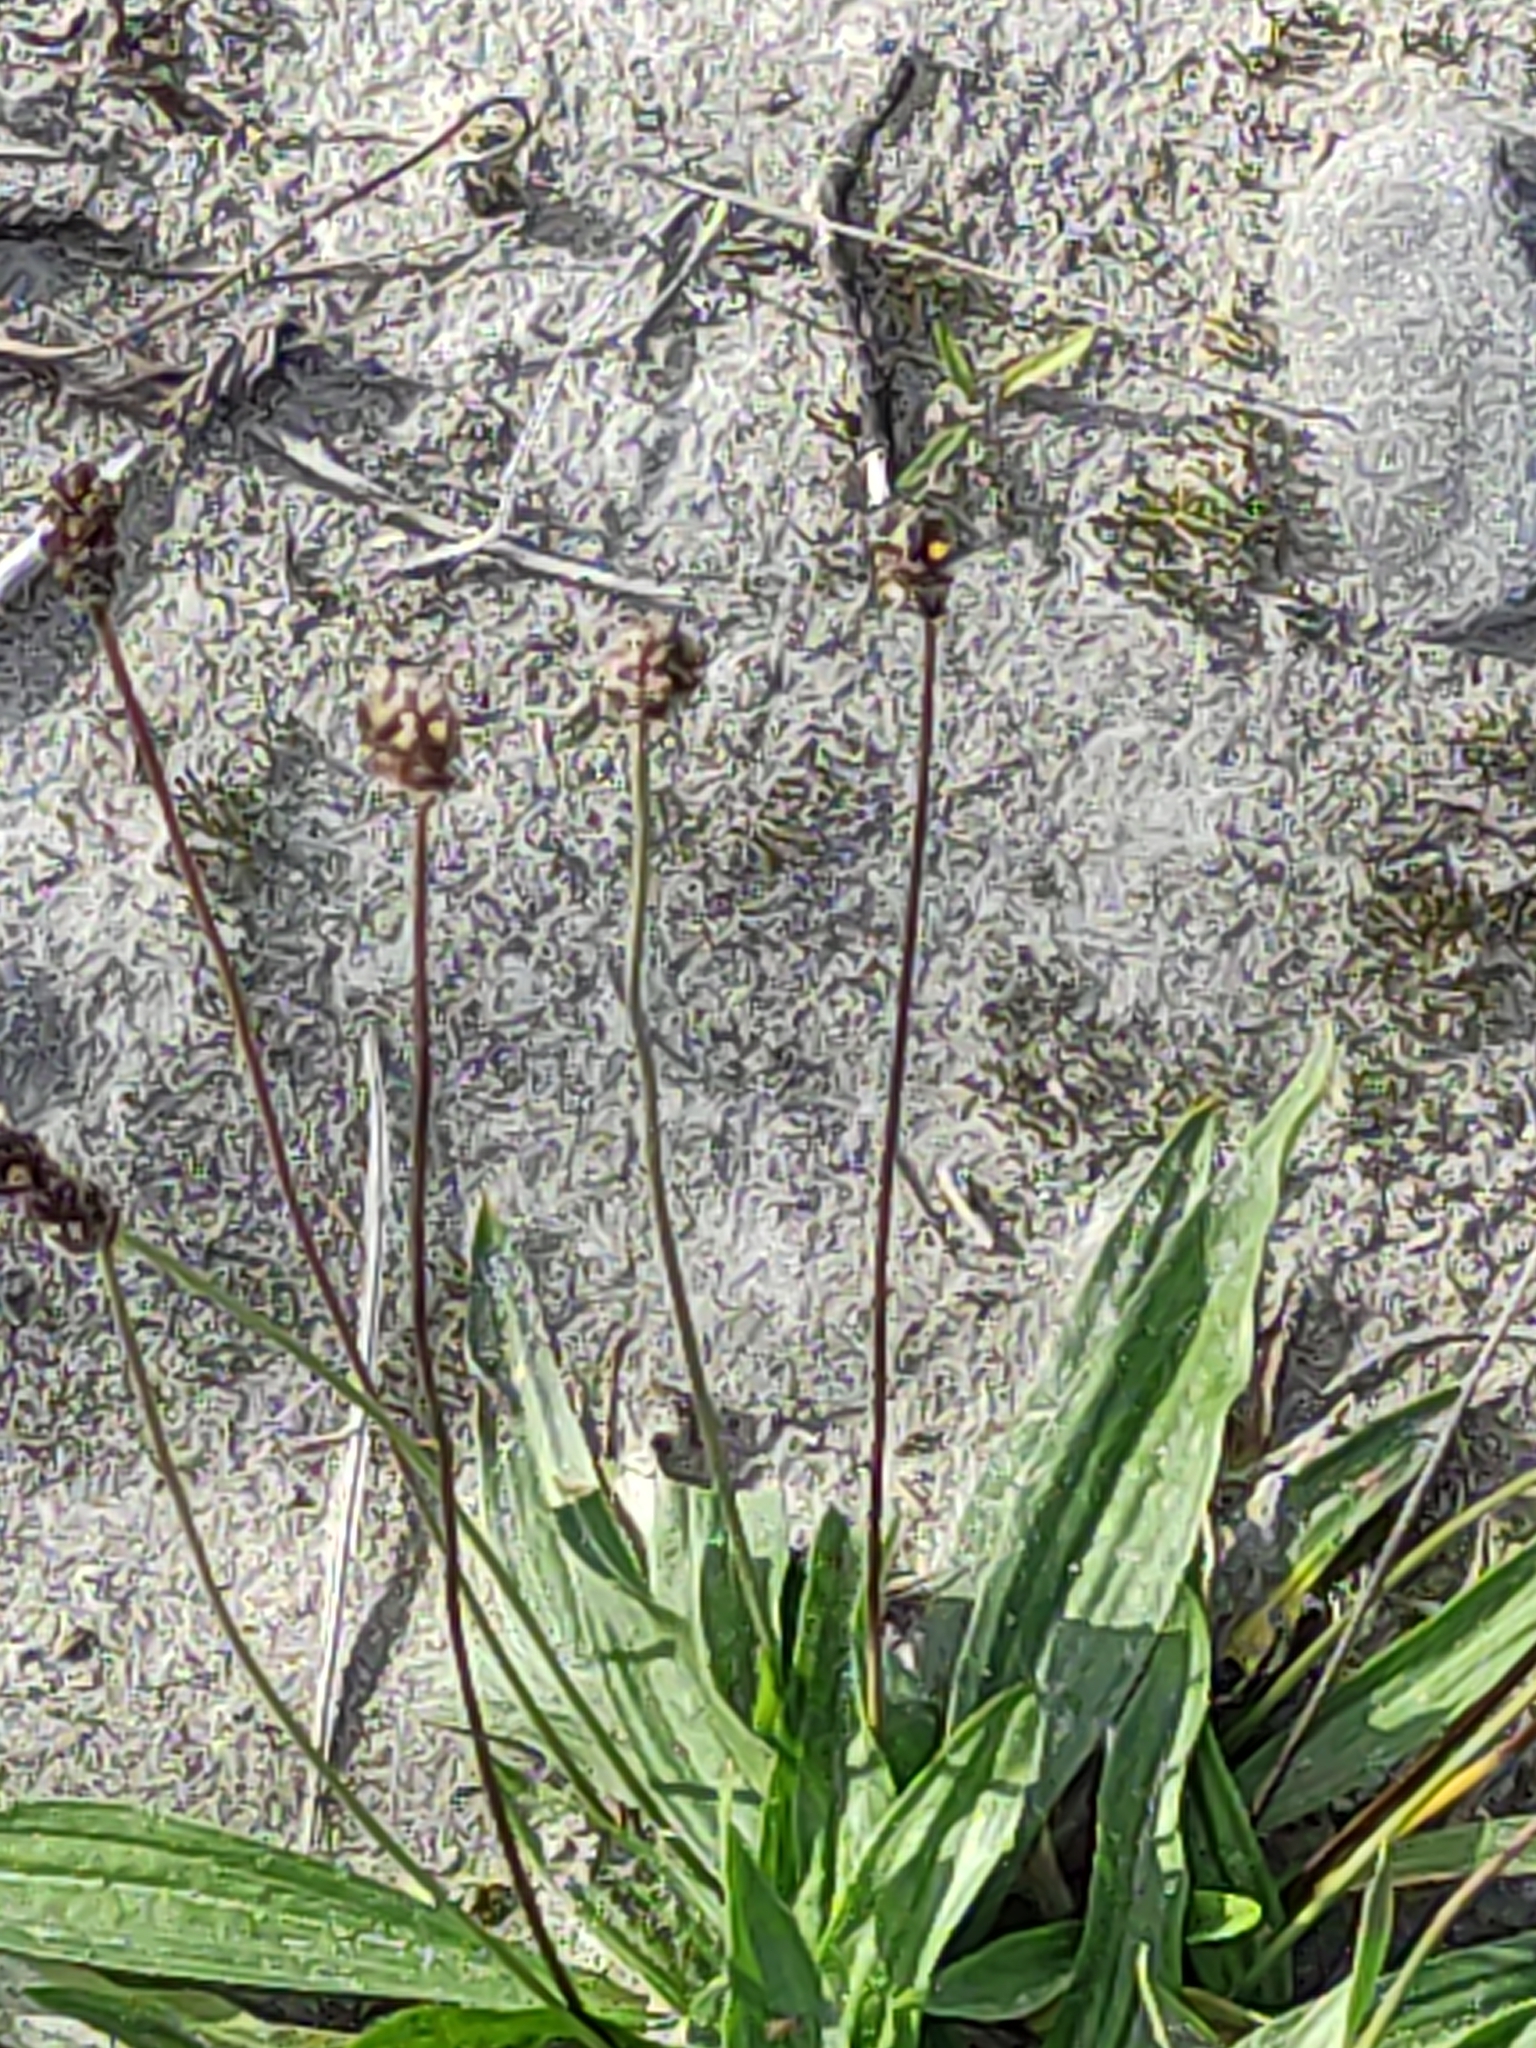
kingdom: Plantae
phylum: Tracheophyta
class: Magnoliopsida
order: Lamiales
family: Plantaginaceae
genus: Plantago
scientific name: Plantago lanceolata
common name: Ribwort plantain
